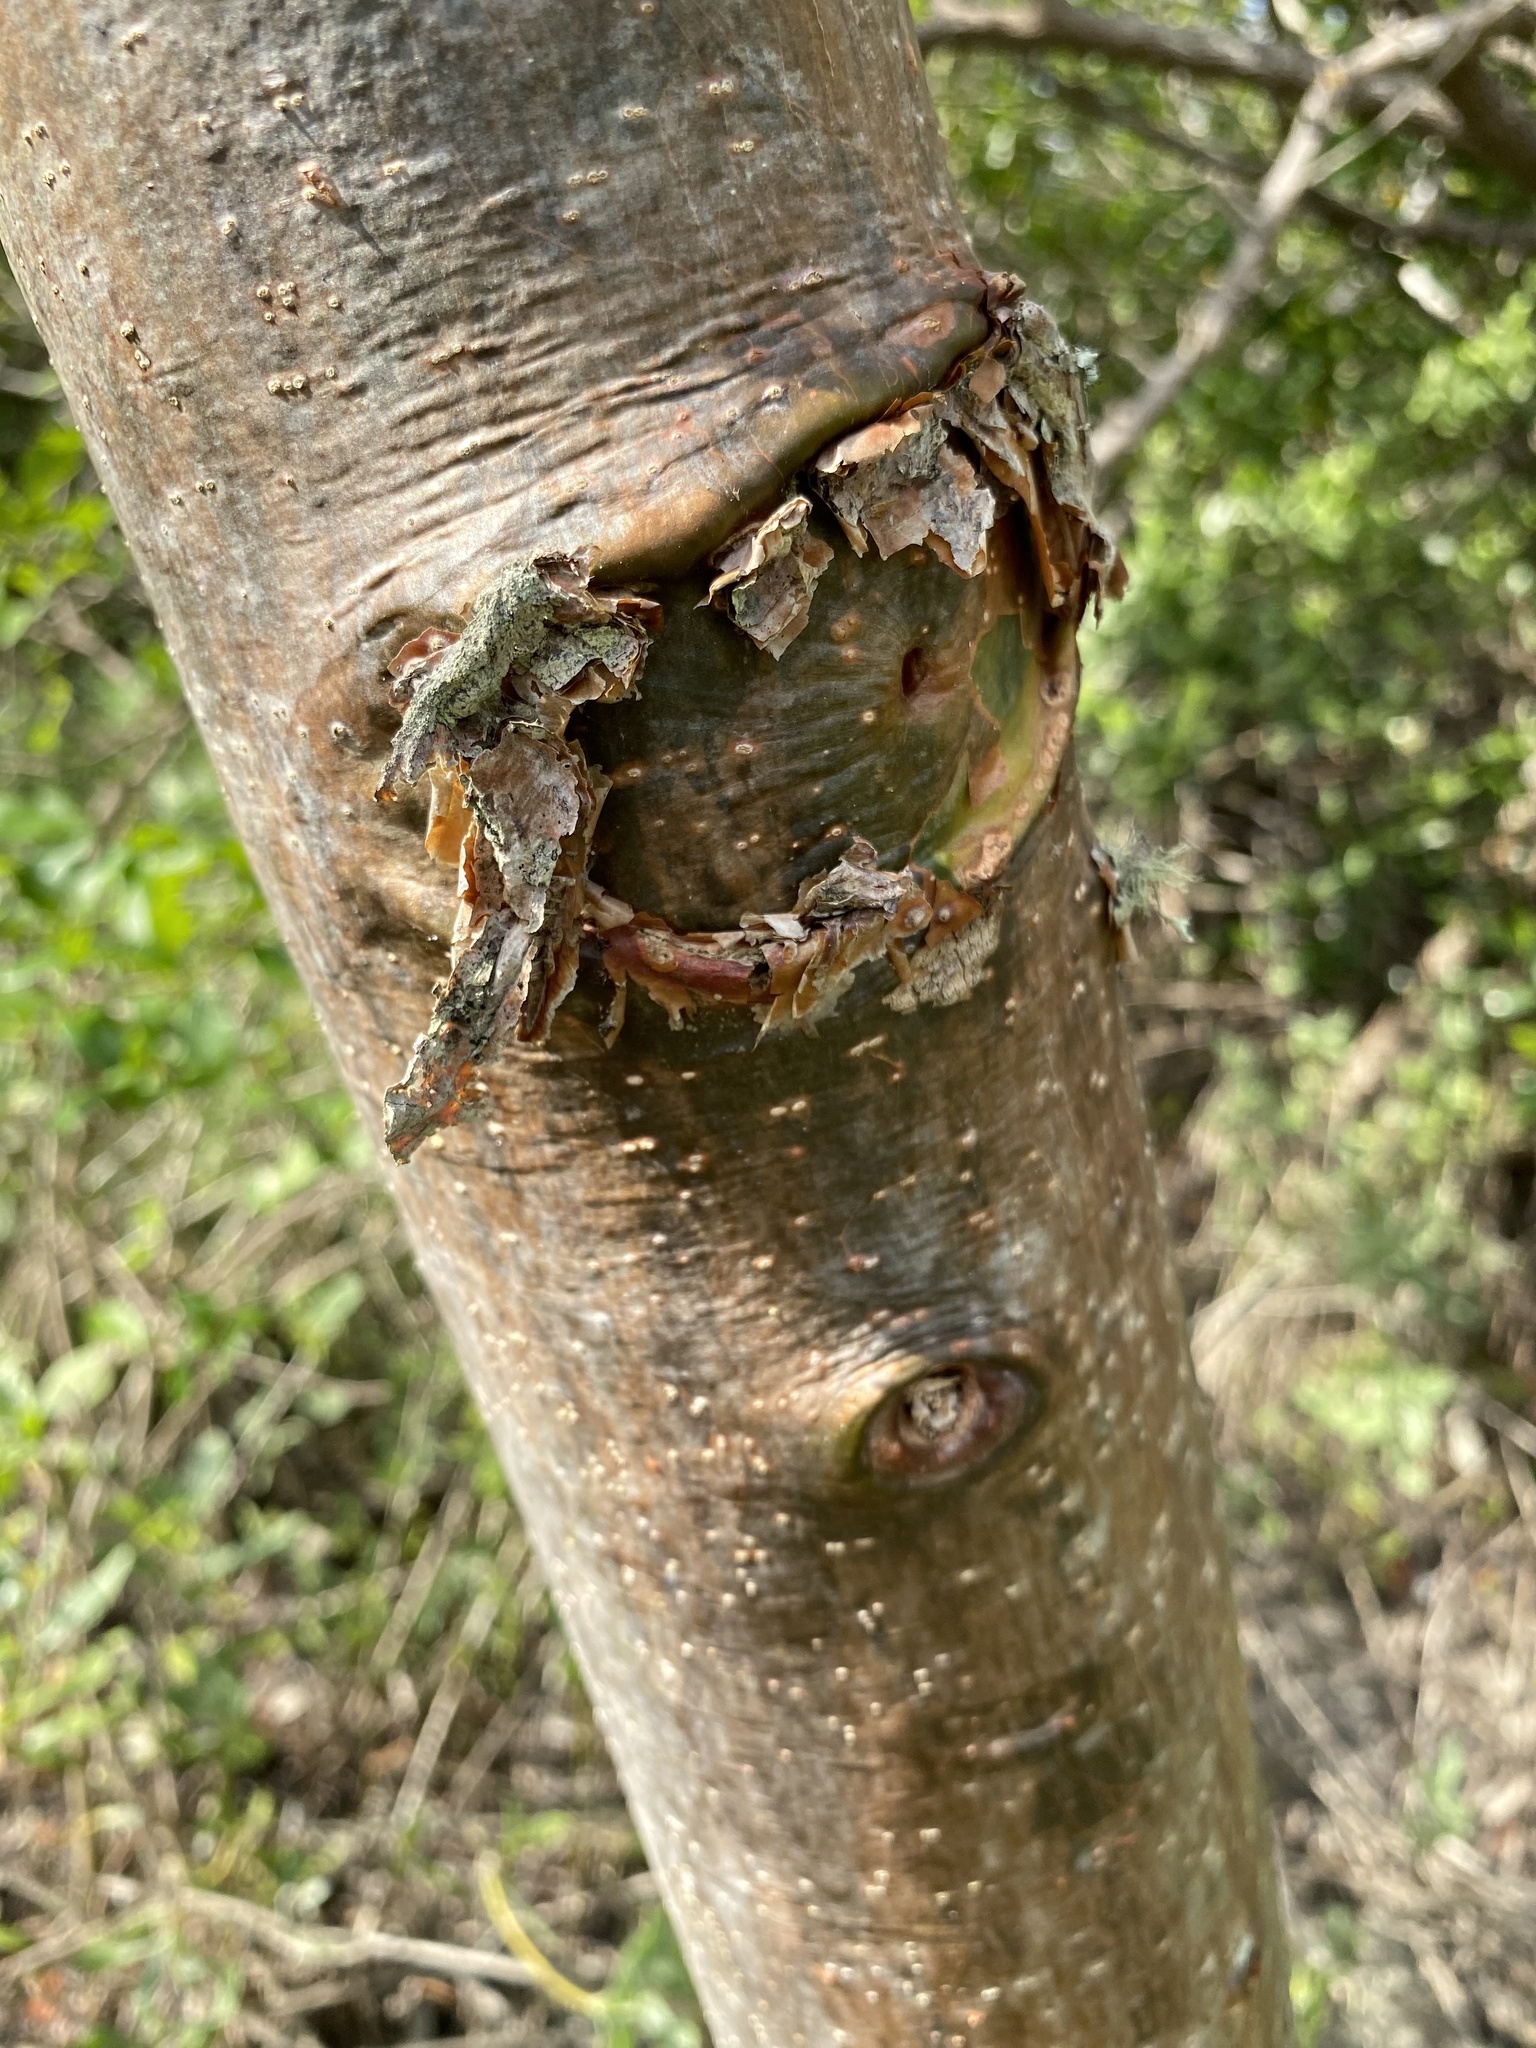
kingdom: Plantae
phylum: Tracheophyta
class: Magnoliopsida
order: Sapindales
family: Burseraceae
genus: Bursera
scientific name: Bursera simaruba
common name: Turpentine tree
